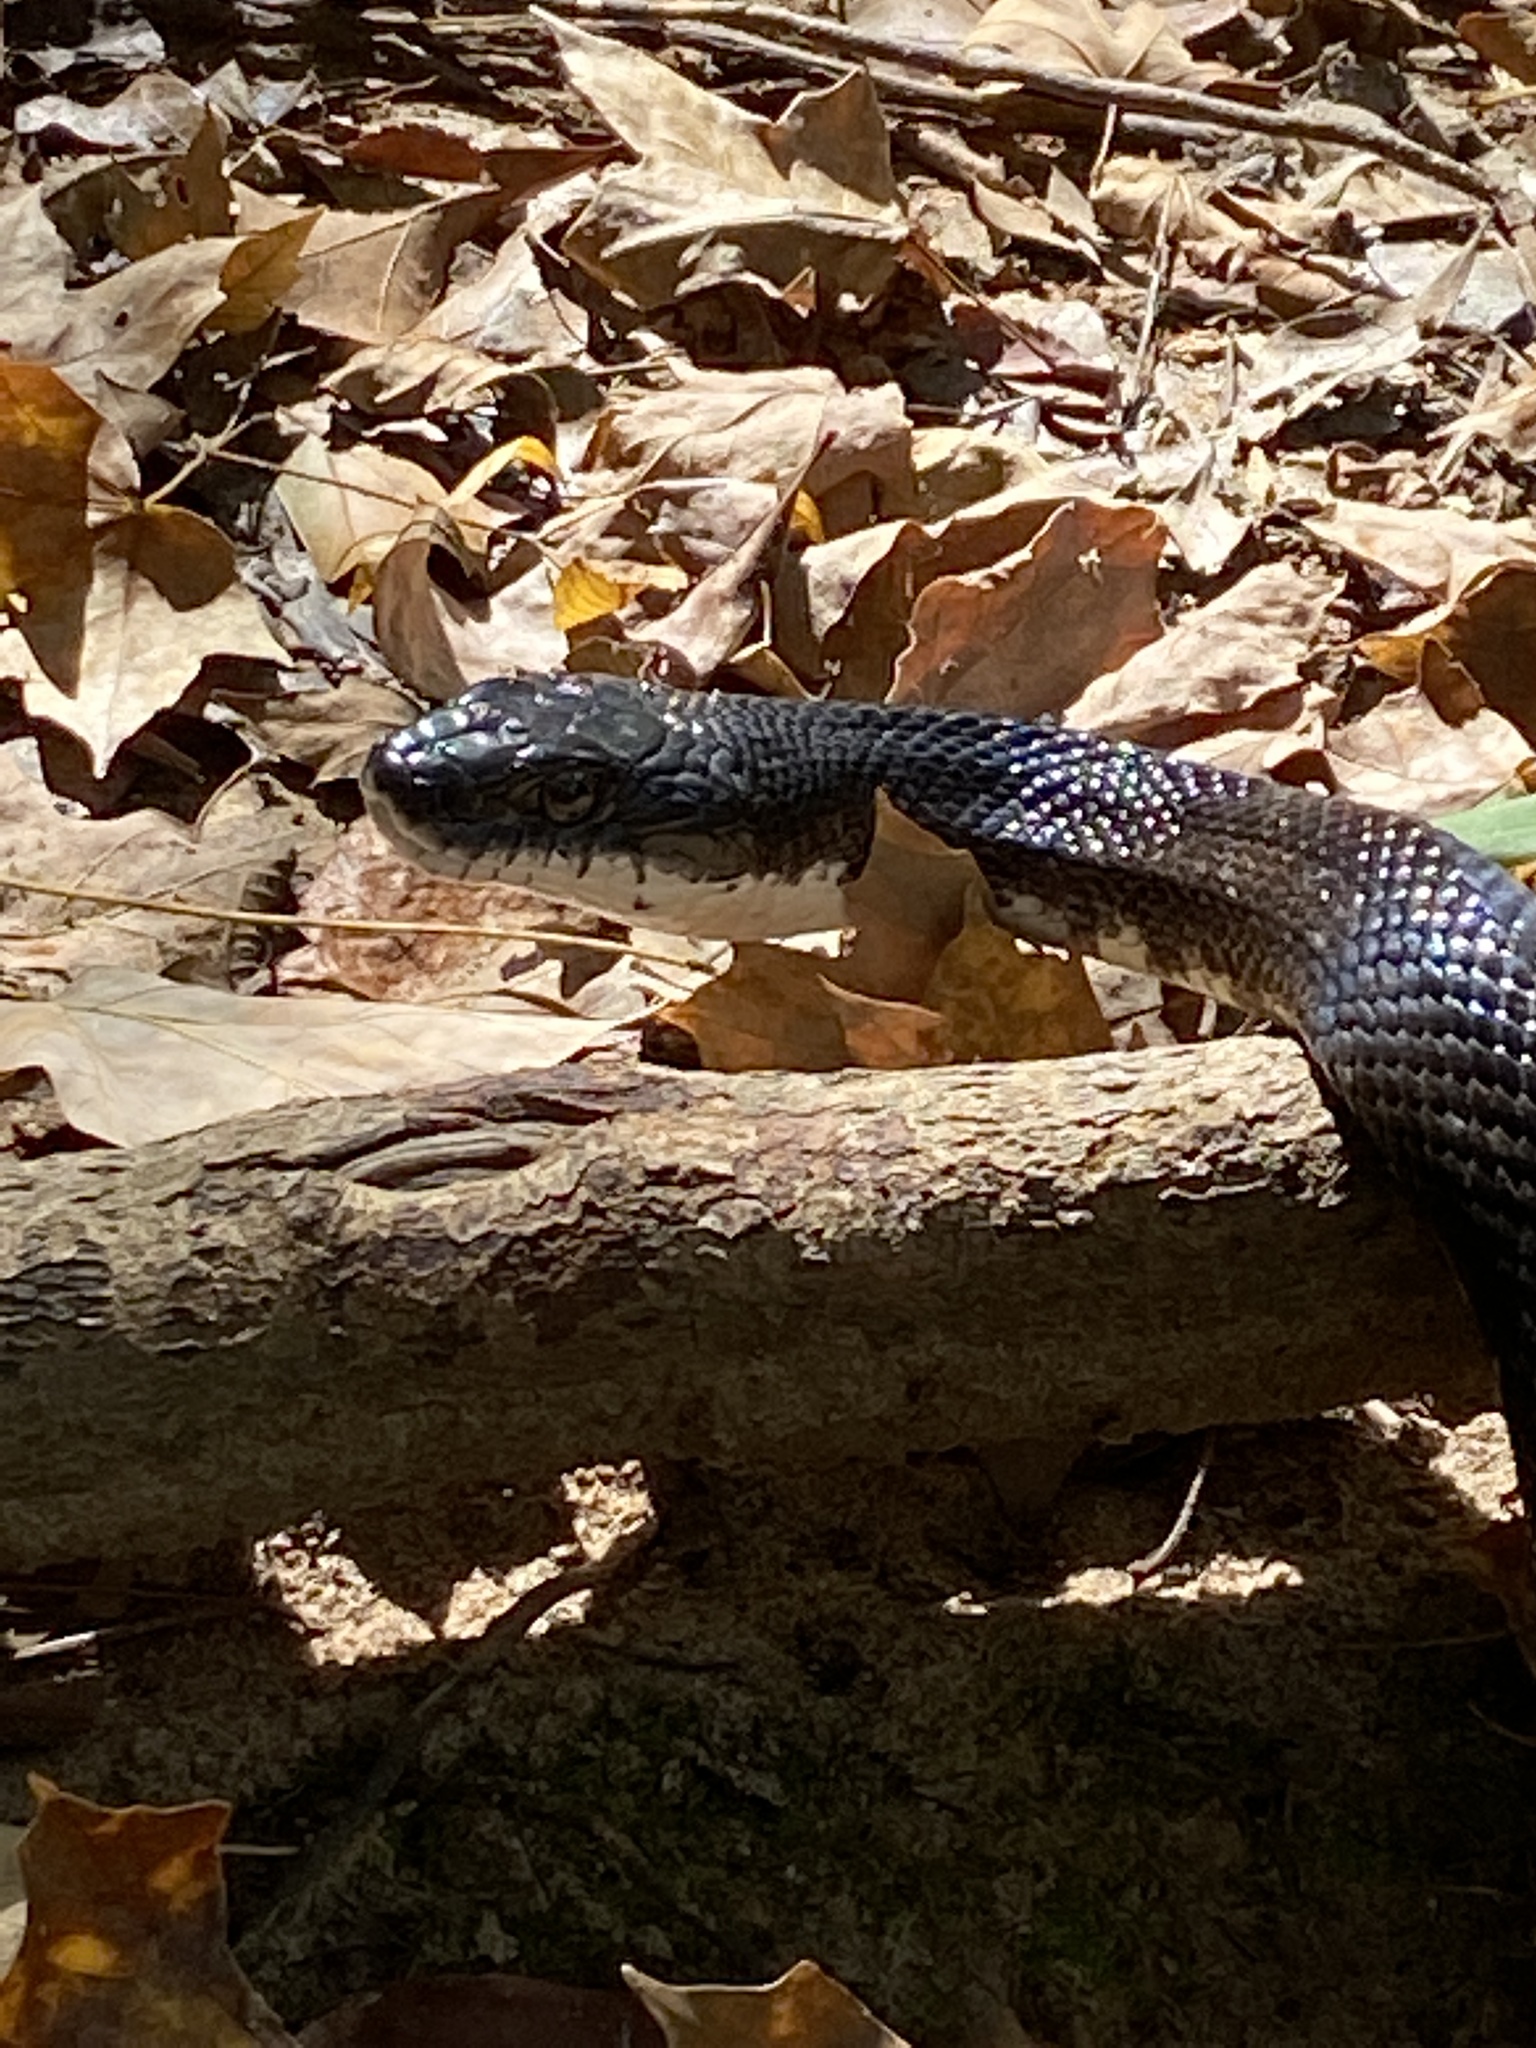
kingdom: Animalia
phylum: Chordata
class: Squamata
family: Colubridae
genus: Pantherophis
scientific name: Pantherophis alleghaniensis
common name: Eastern rat snake
